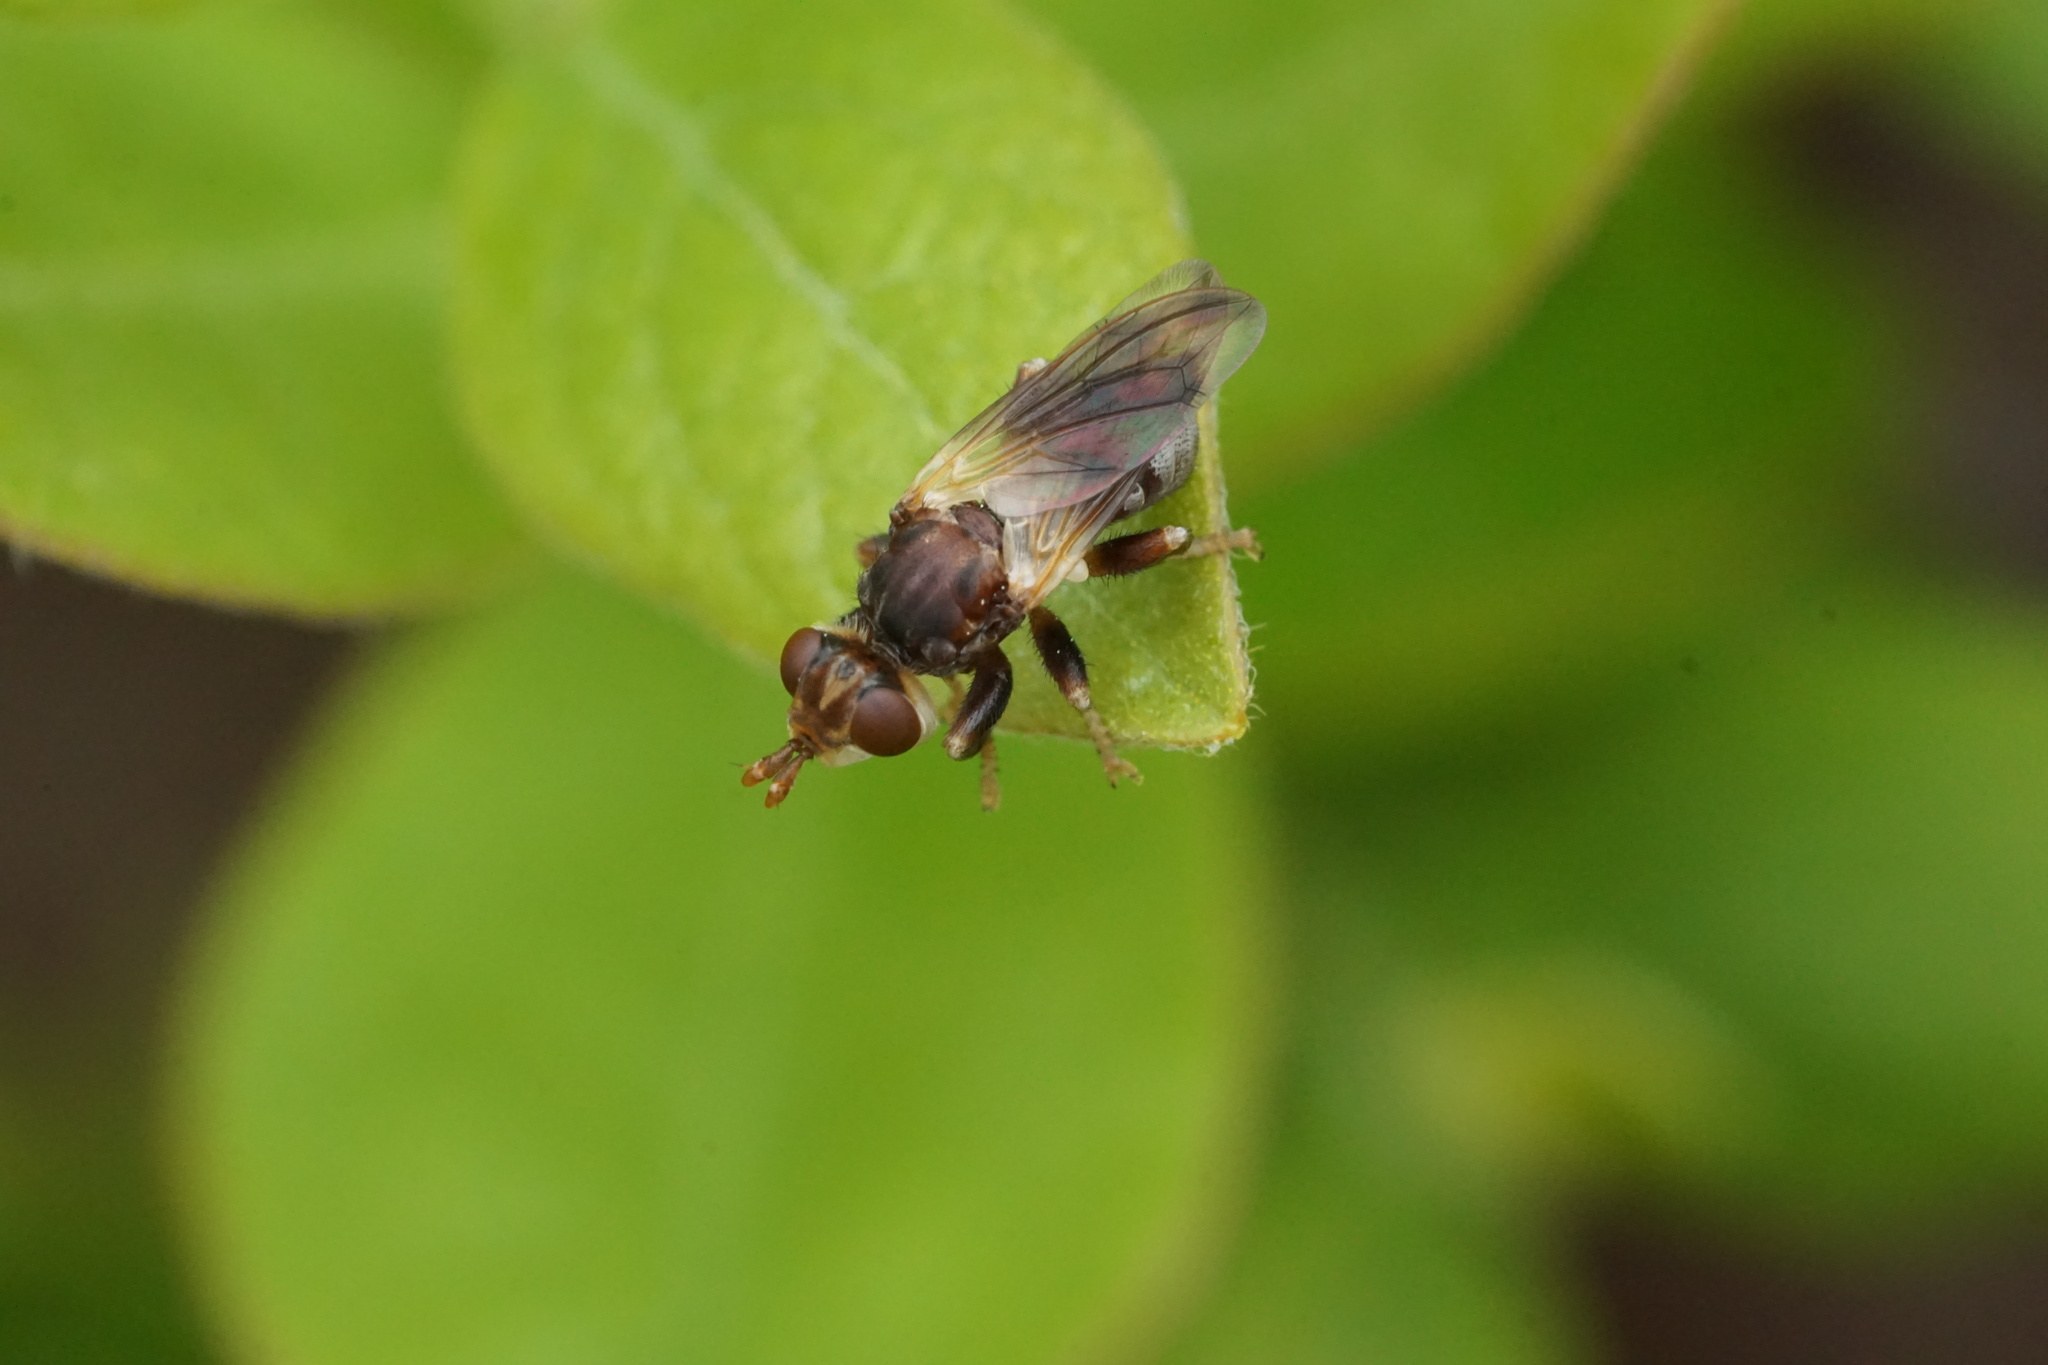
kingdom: Animalia
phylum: Arthropoda
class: Insecta
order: Diptera
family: Conopidae
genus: Myopa
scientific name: Myopa virginica
